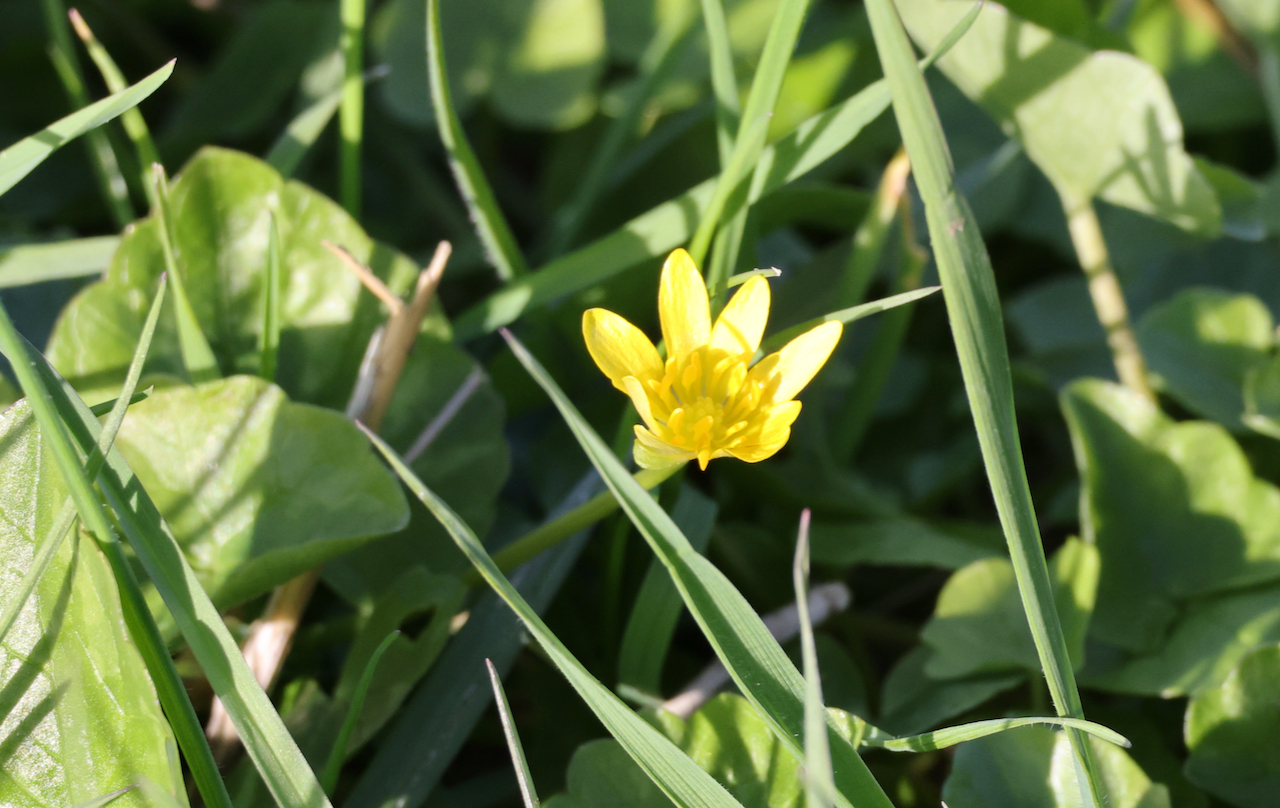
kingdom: Plantae
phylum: Tracheophyta
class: Magnoliopsida
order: Ranunculales
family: Ranunculaceae
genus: Ficaria
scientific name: Ficaria verna
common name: Lesser celandine
